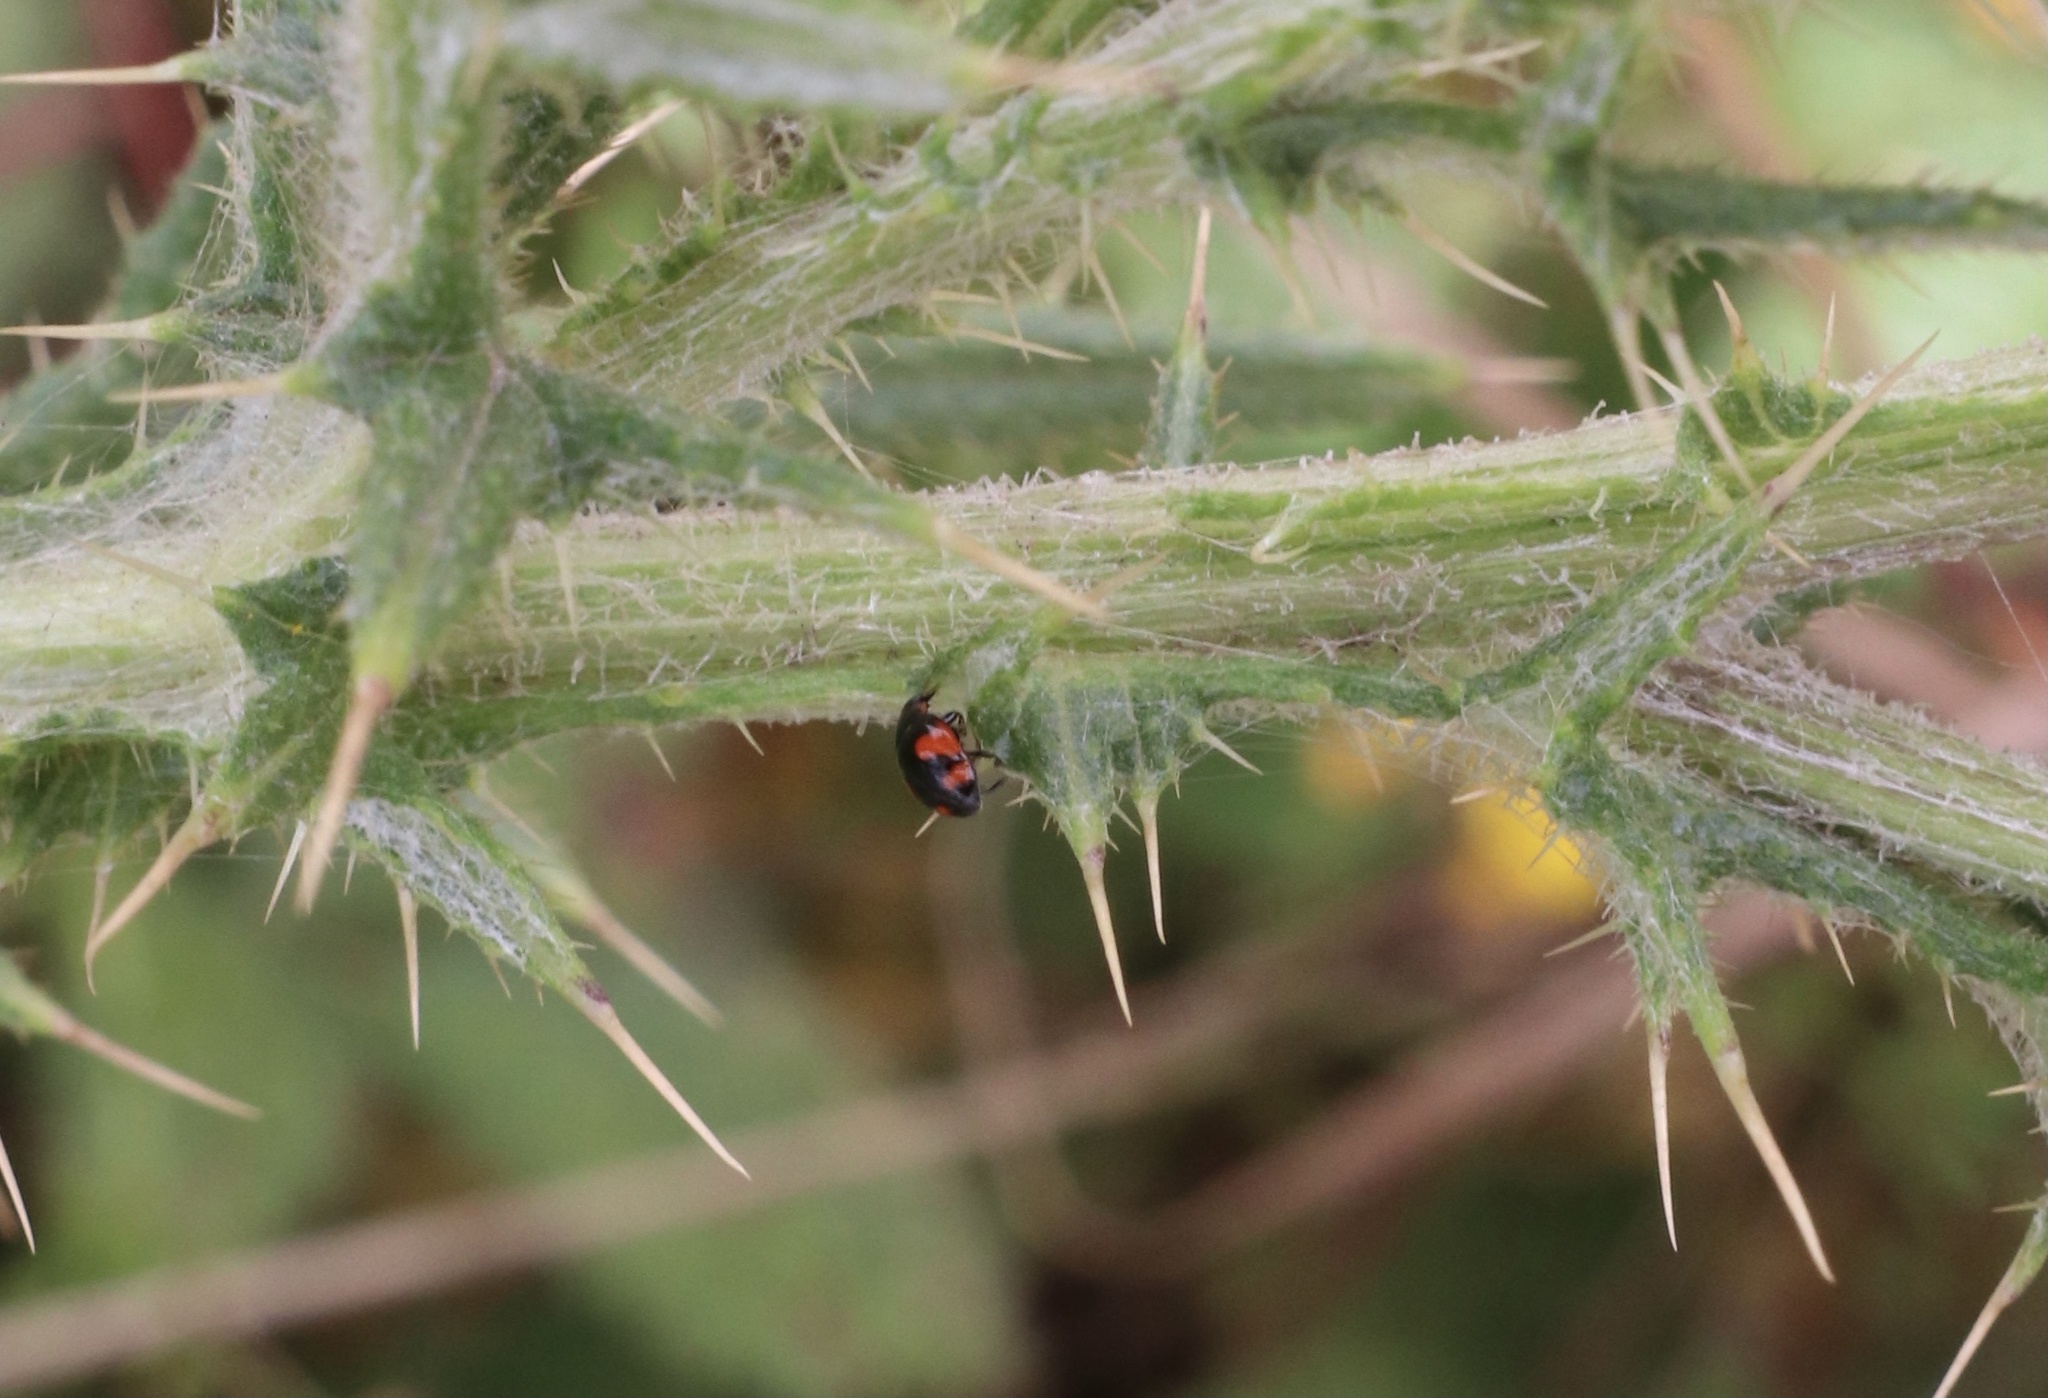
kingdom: Animalia
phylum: Arthropoda
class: Insecta
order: Coleoptera
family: Coccinellidae
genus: Hyperaspis
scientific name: Hyperaspis
